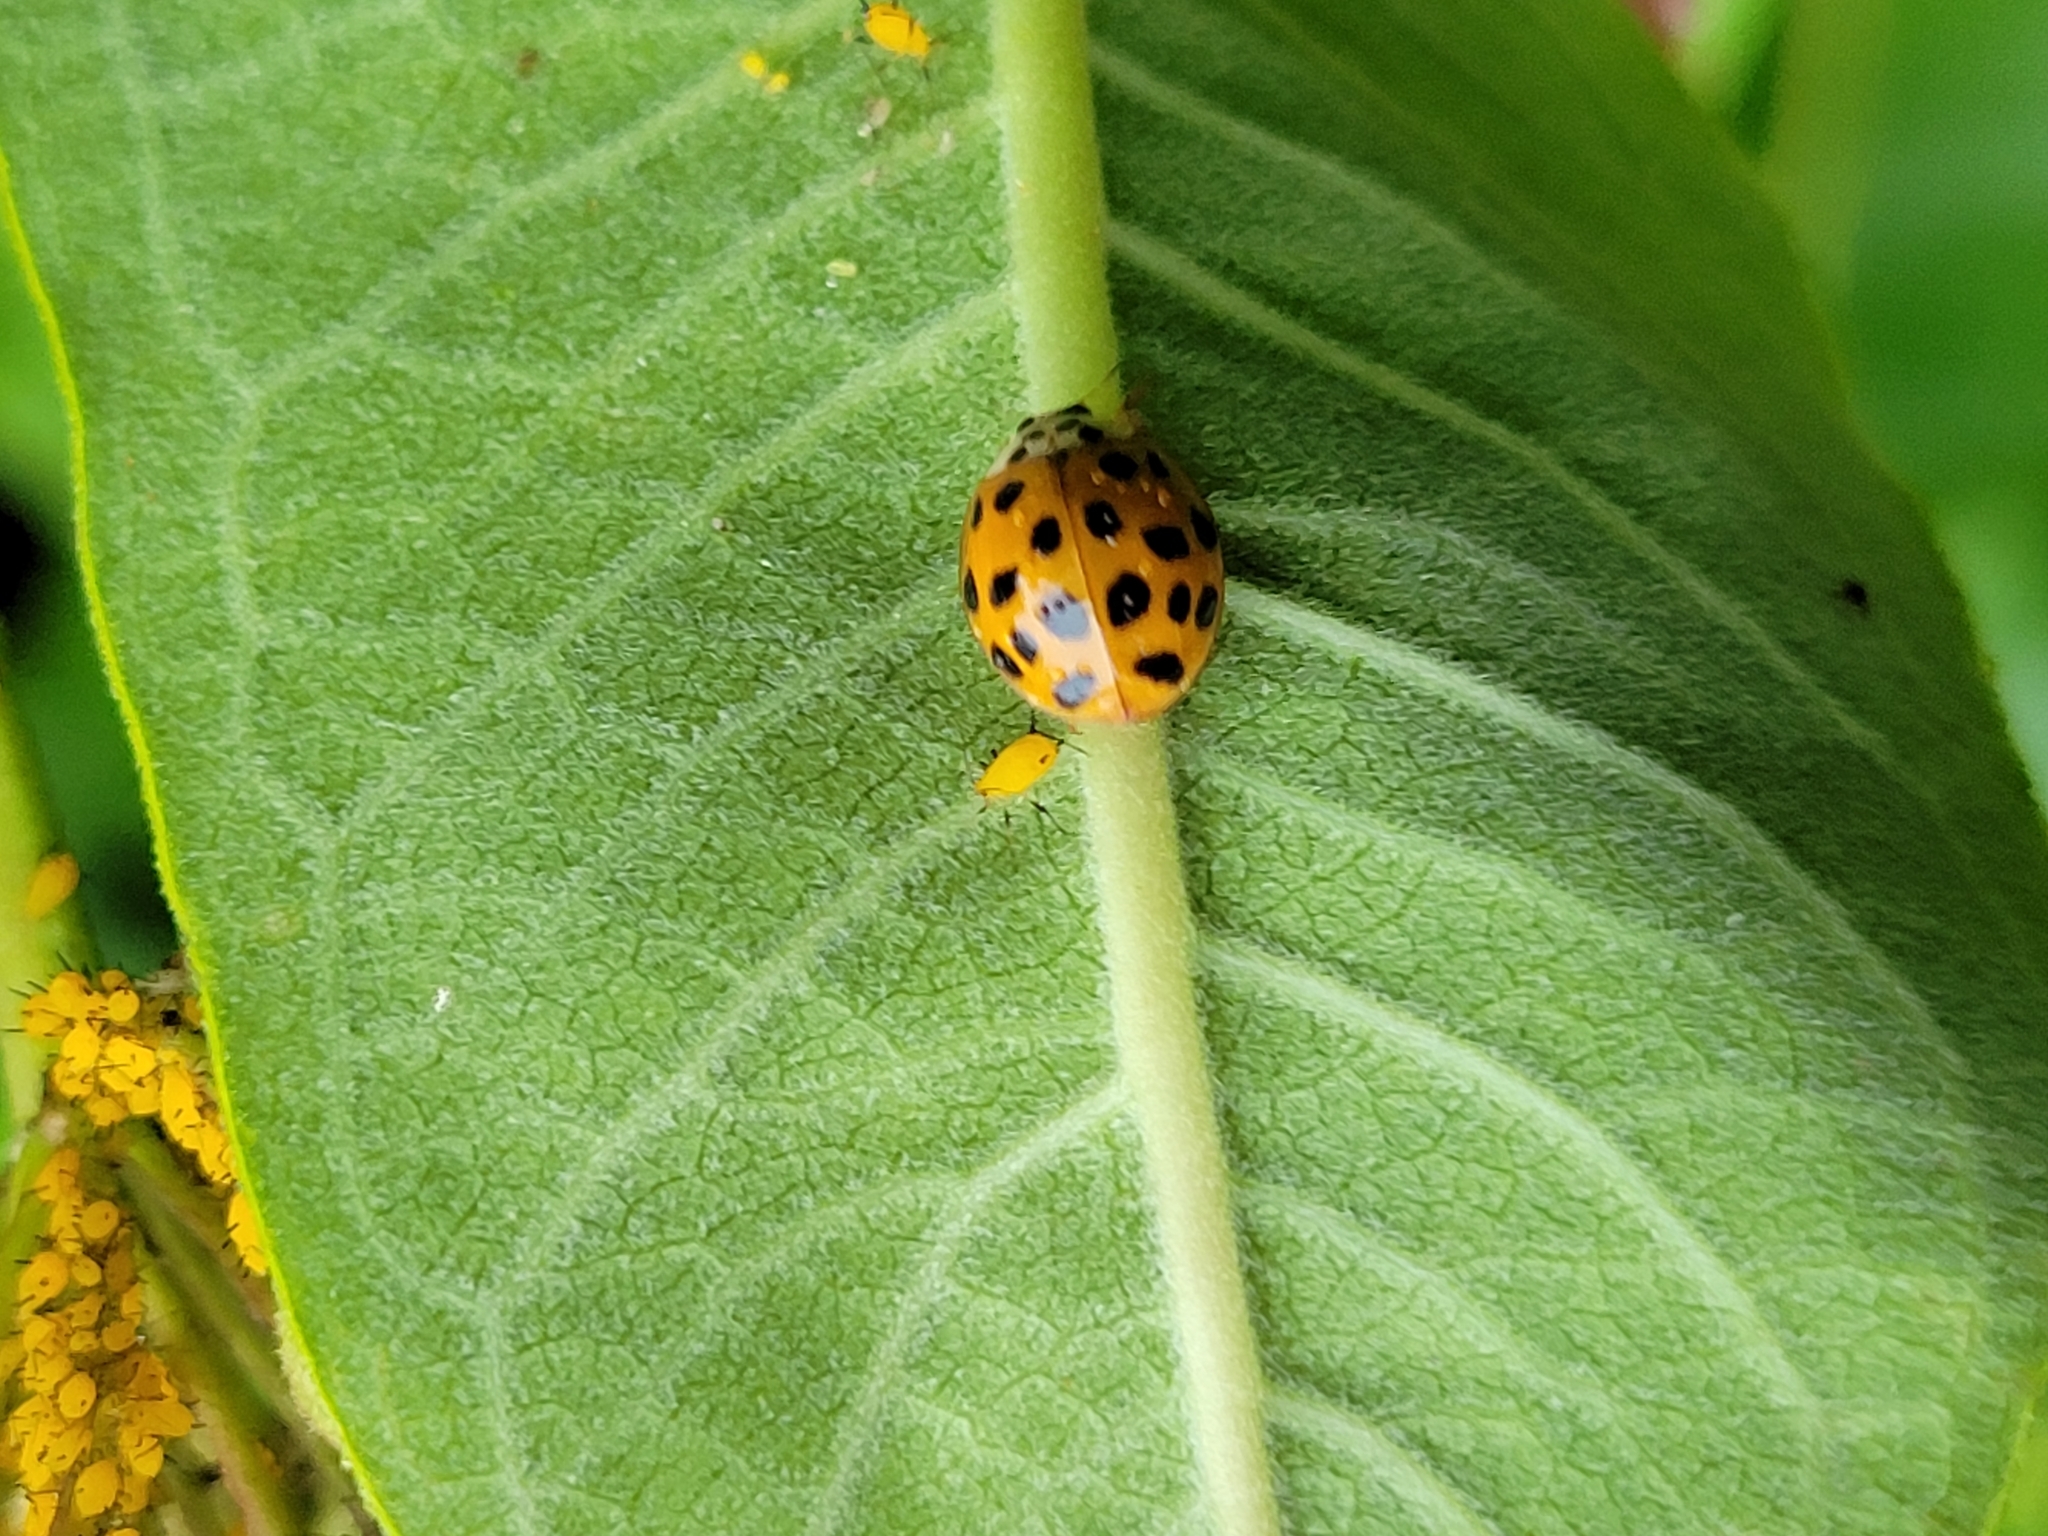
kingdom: Animalia
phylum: Arthropoda
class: Insecta
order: Coleoptera
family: Coccinellidae
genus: Harmonia
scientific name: Harmonia axyridis
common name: Harlequin ladybird
